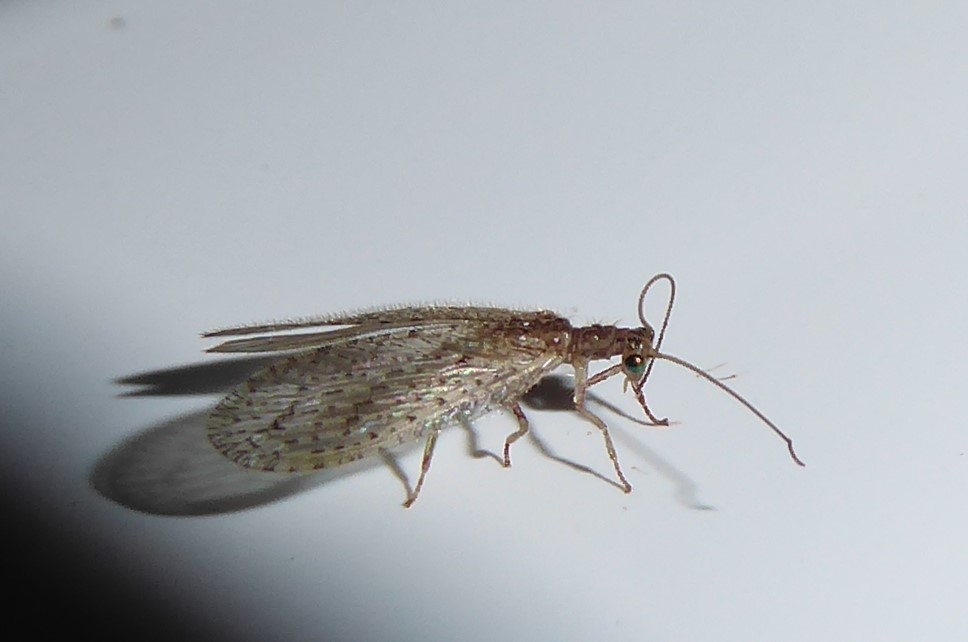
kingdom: Animalia
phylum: Arthropoda
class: Insecta
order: Neuroptera
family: Hemerobiidae
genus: Micromus
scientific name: Micromus tasmaniae
